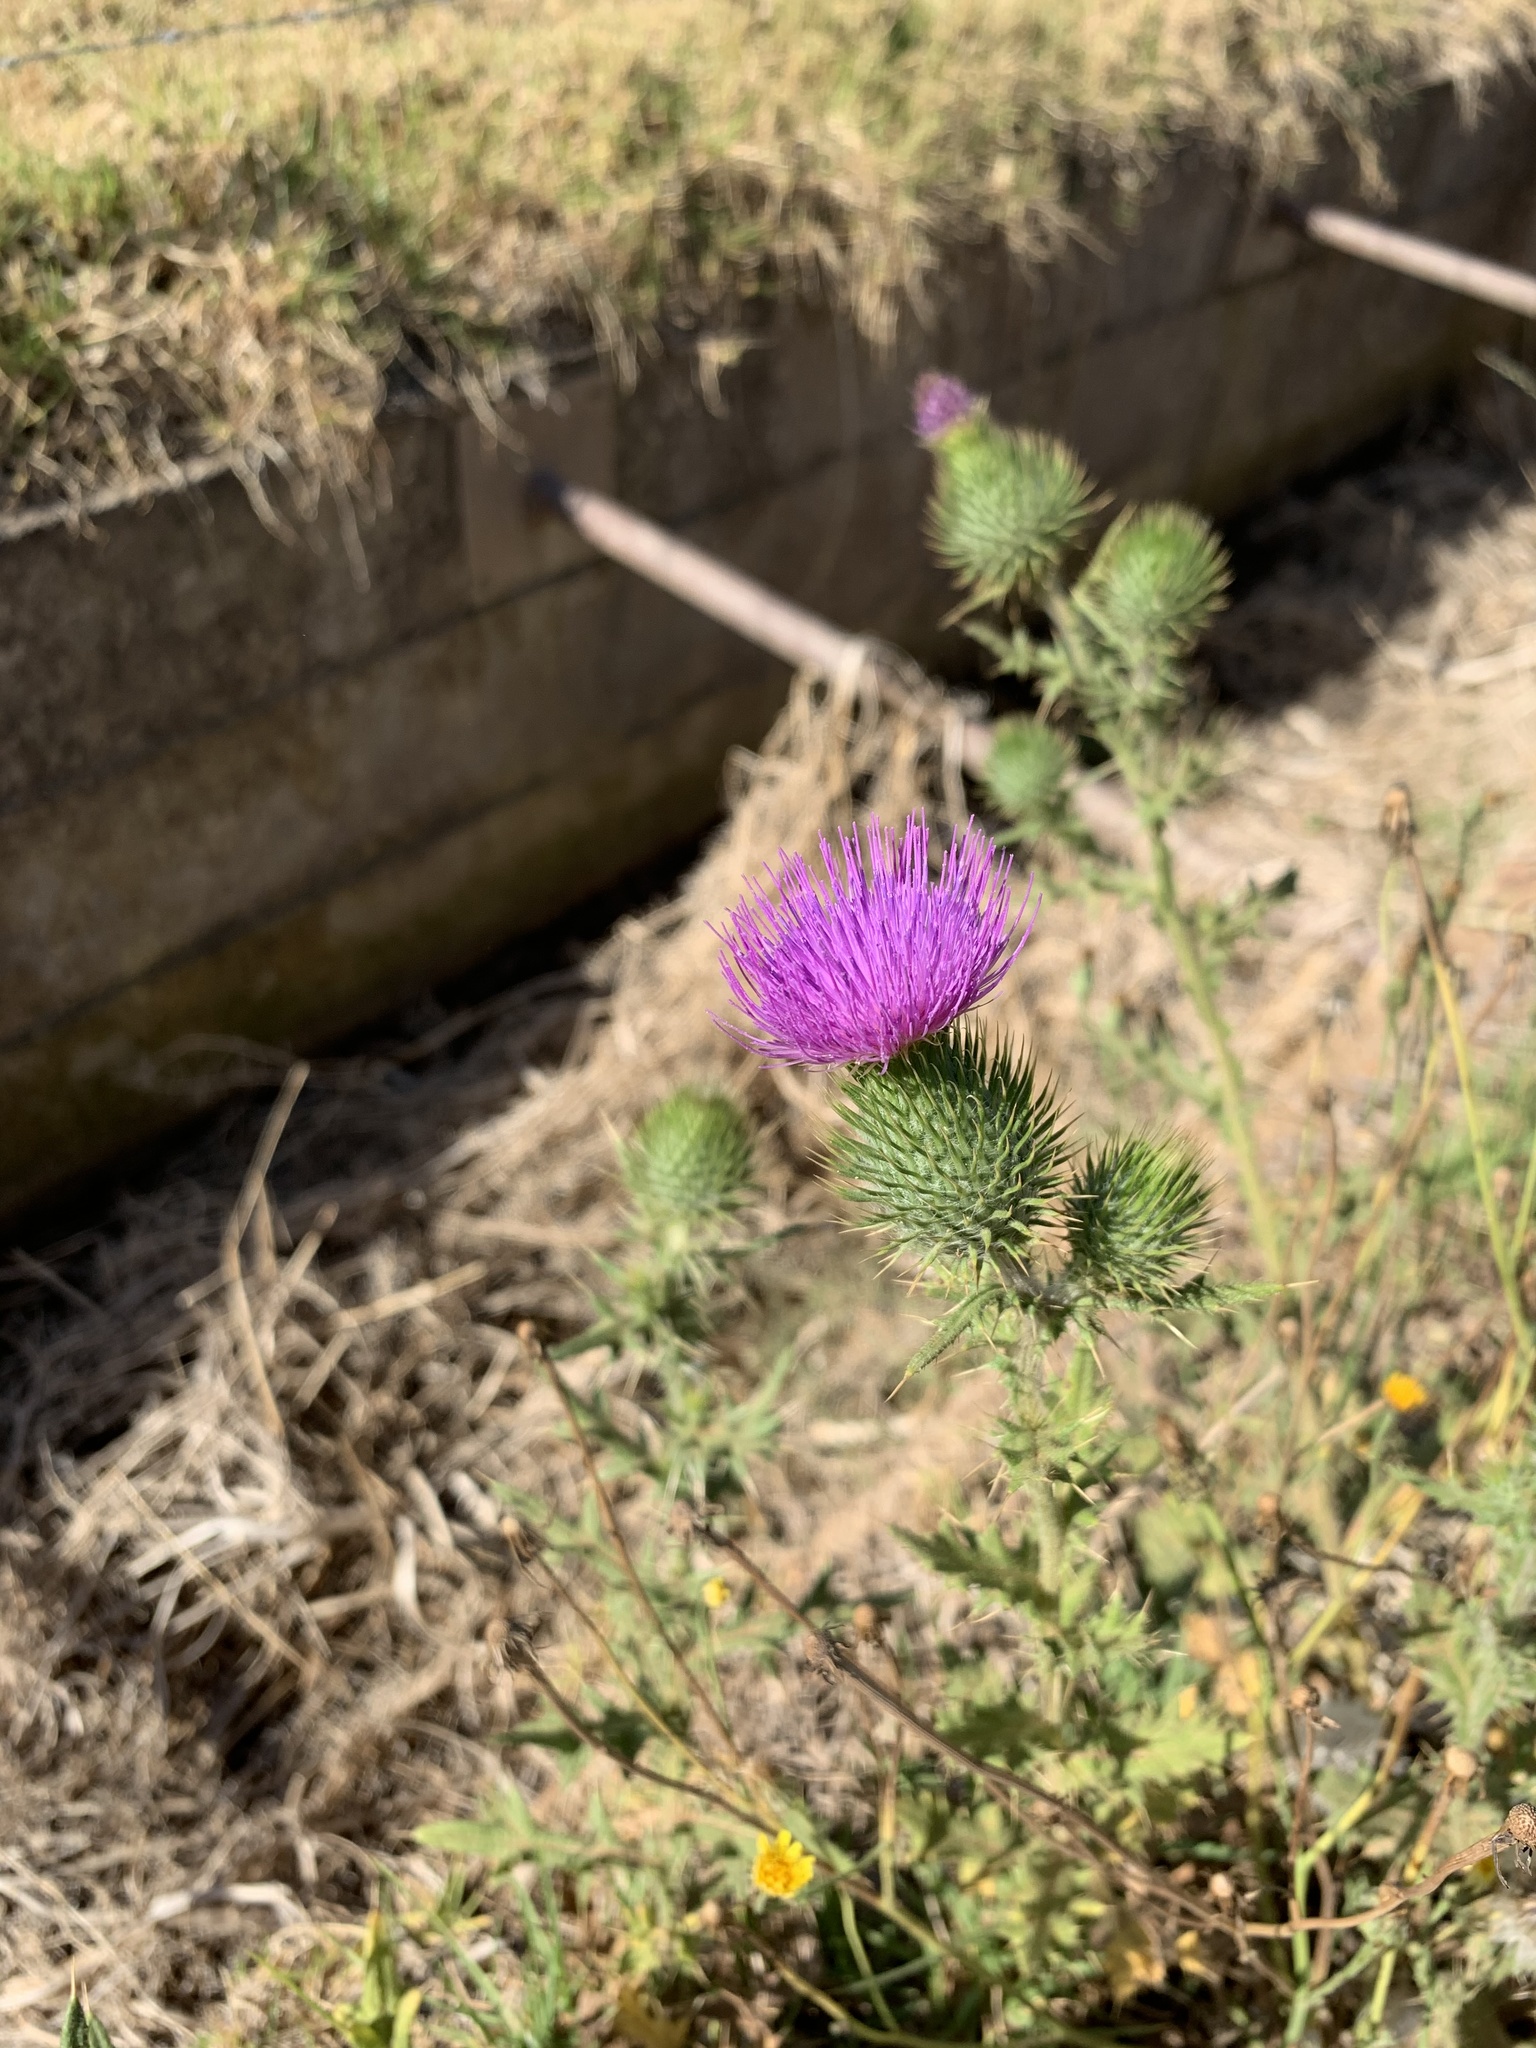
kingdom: Plantae
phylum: Tracheophyta
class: Magnoliopsida
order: Asterales
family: Asteraceae
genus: Cirsium
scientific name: Cirsium vulgare
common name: Bull thistle
